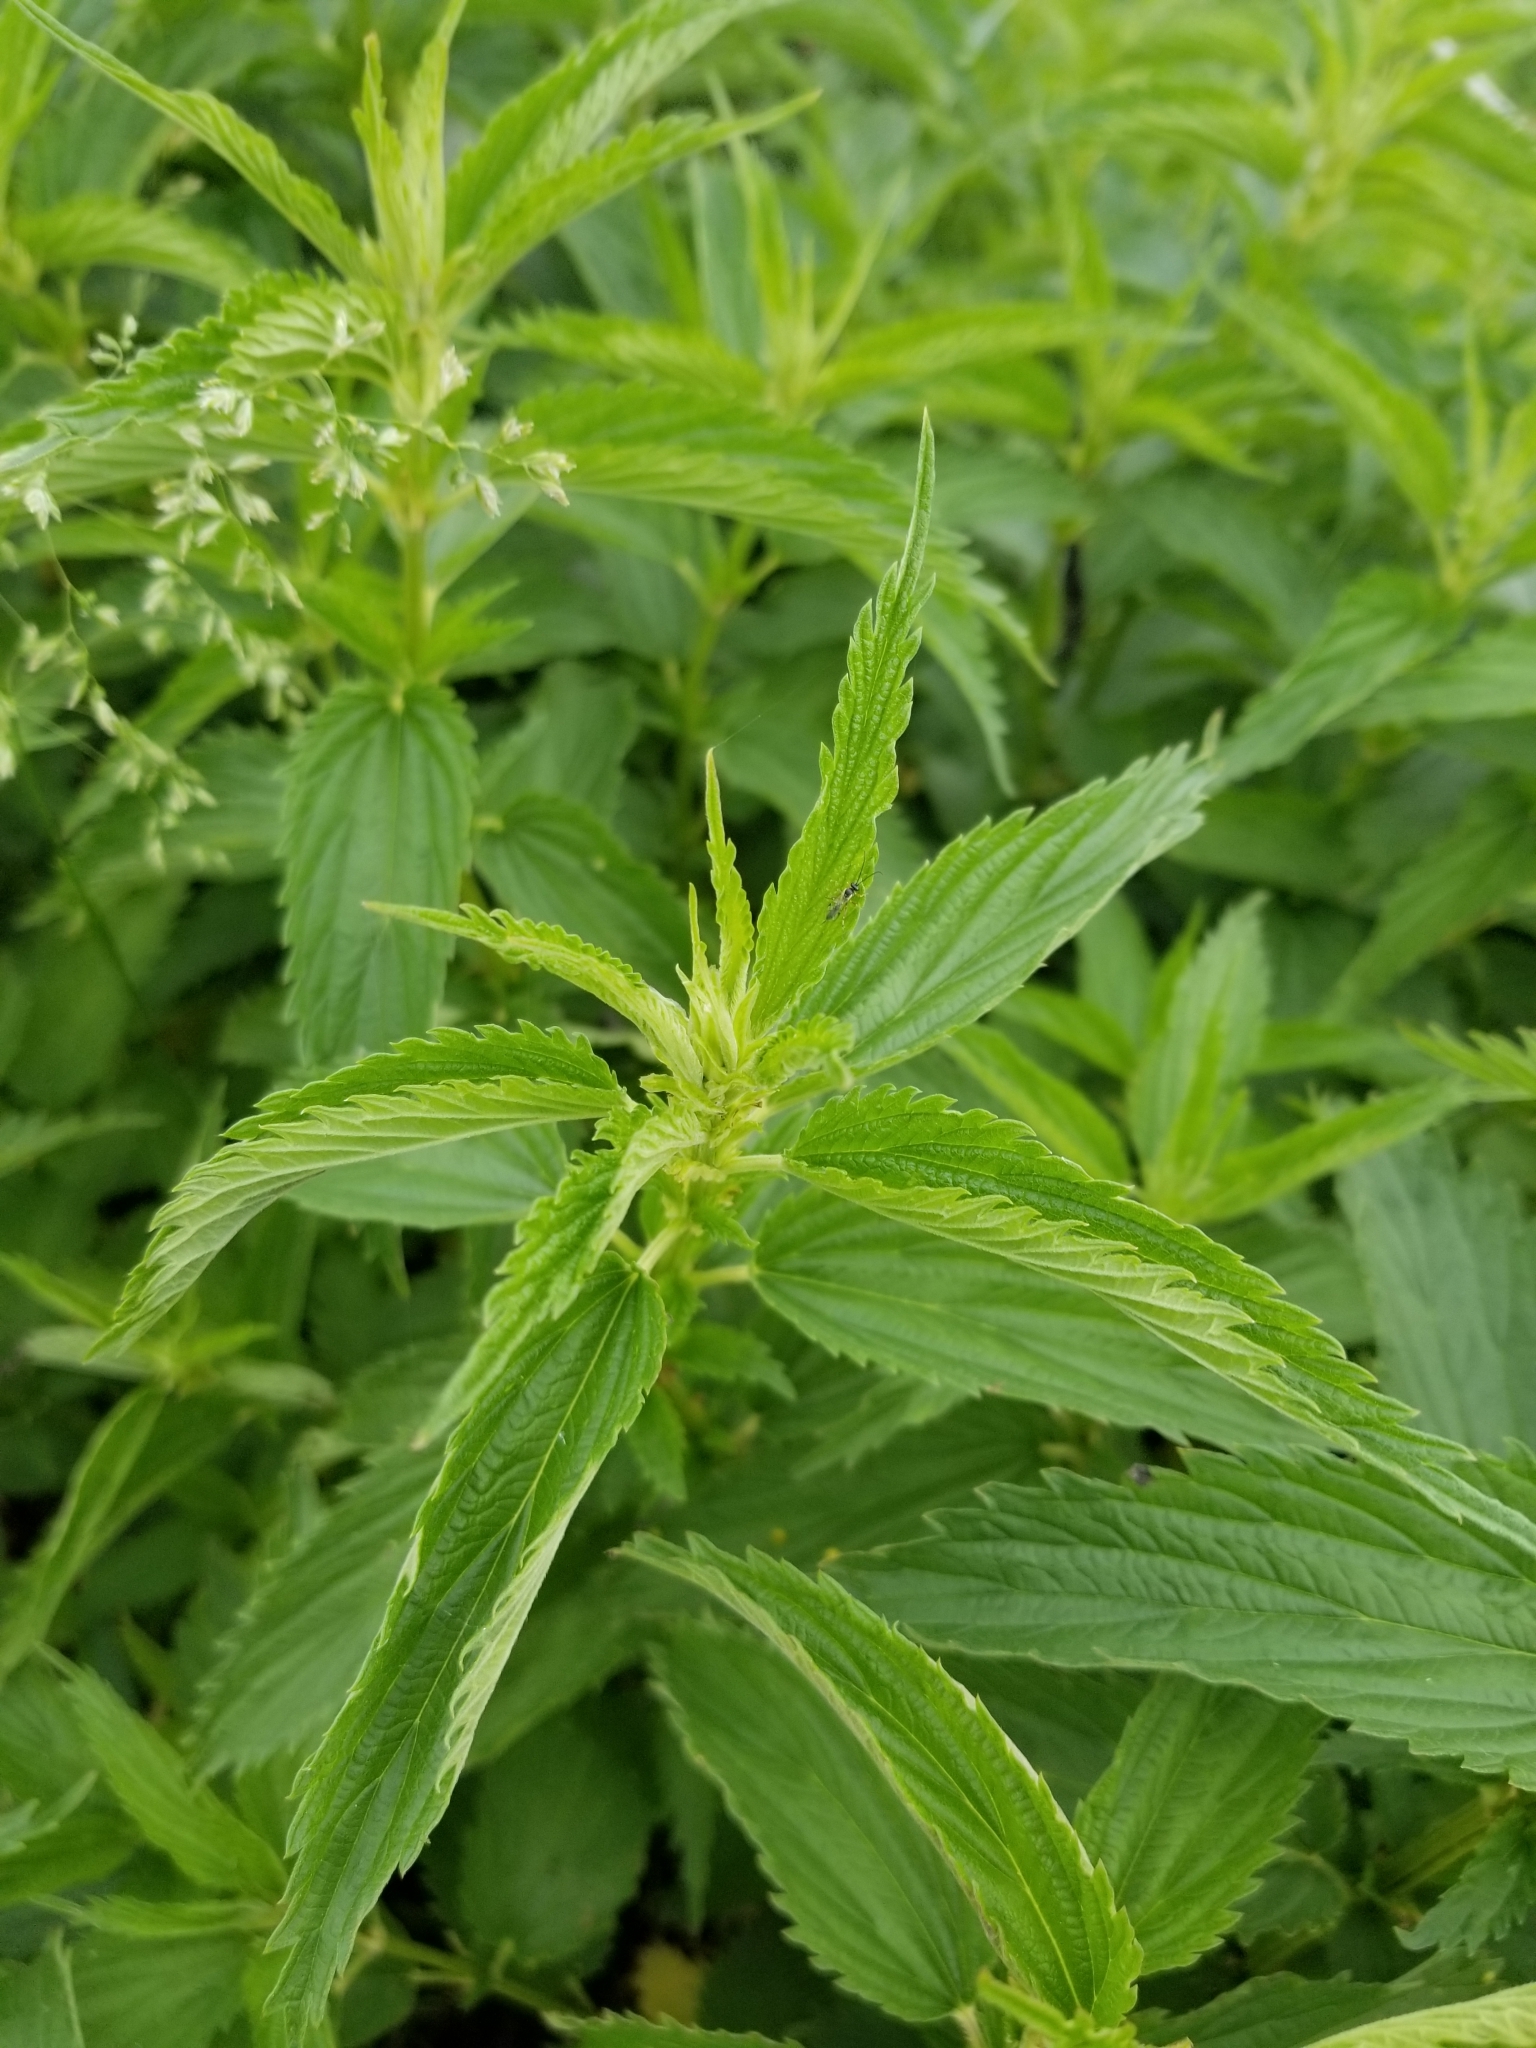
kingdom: Plantae
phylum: Tracheophyta
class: Magnoliopsida
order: Rosales
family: Urticaceae
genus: Urtica
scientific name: Urtica dioica
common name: Common nettle
